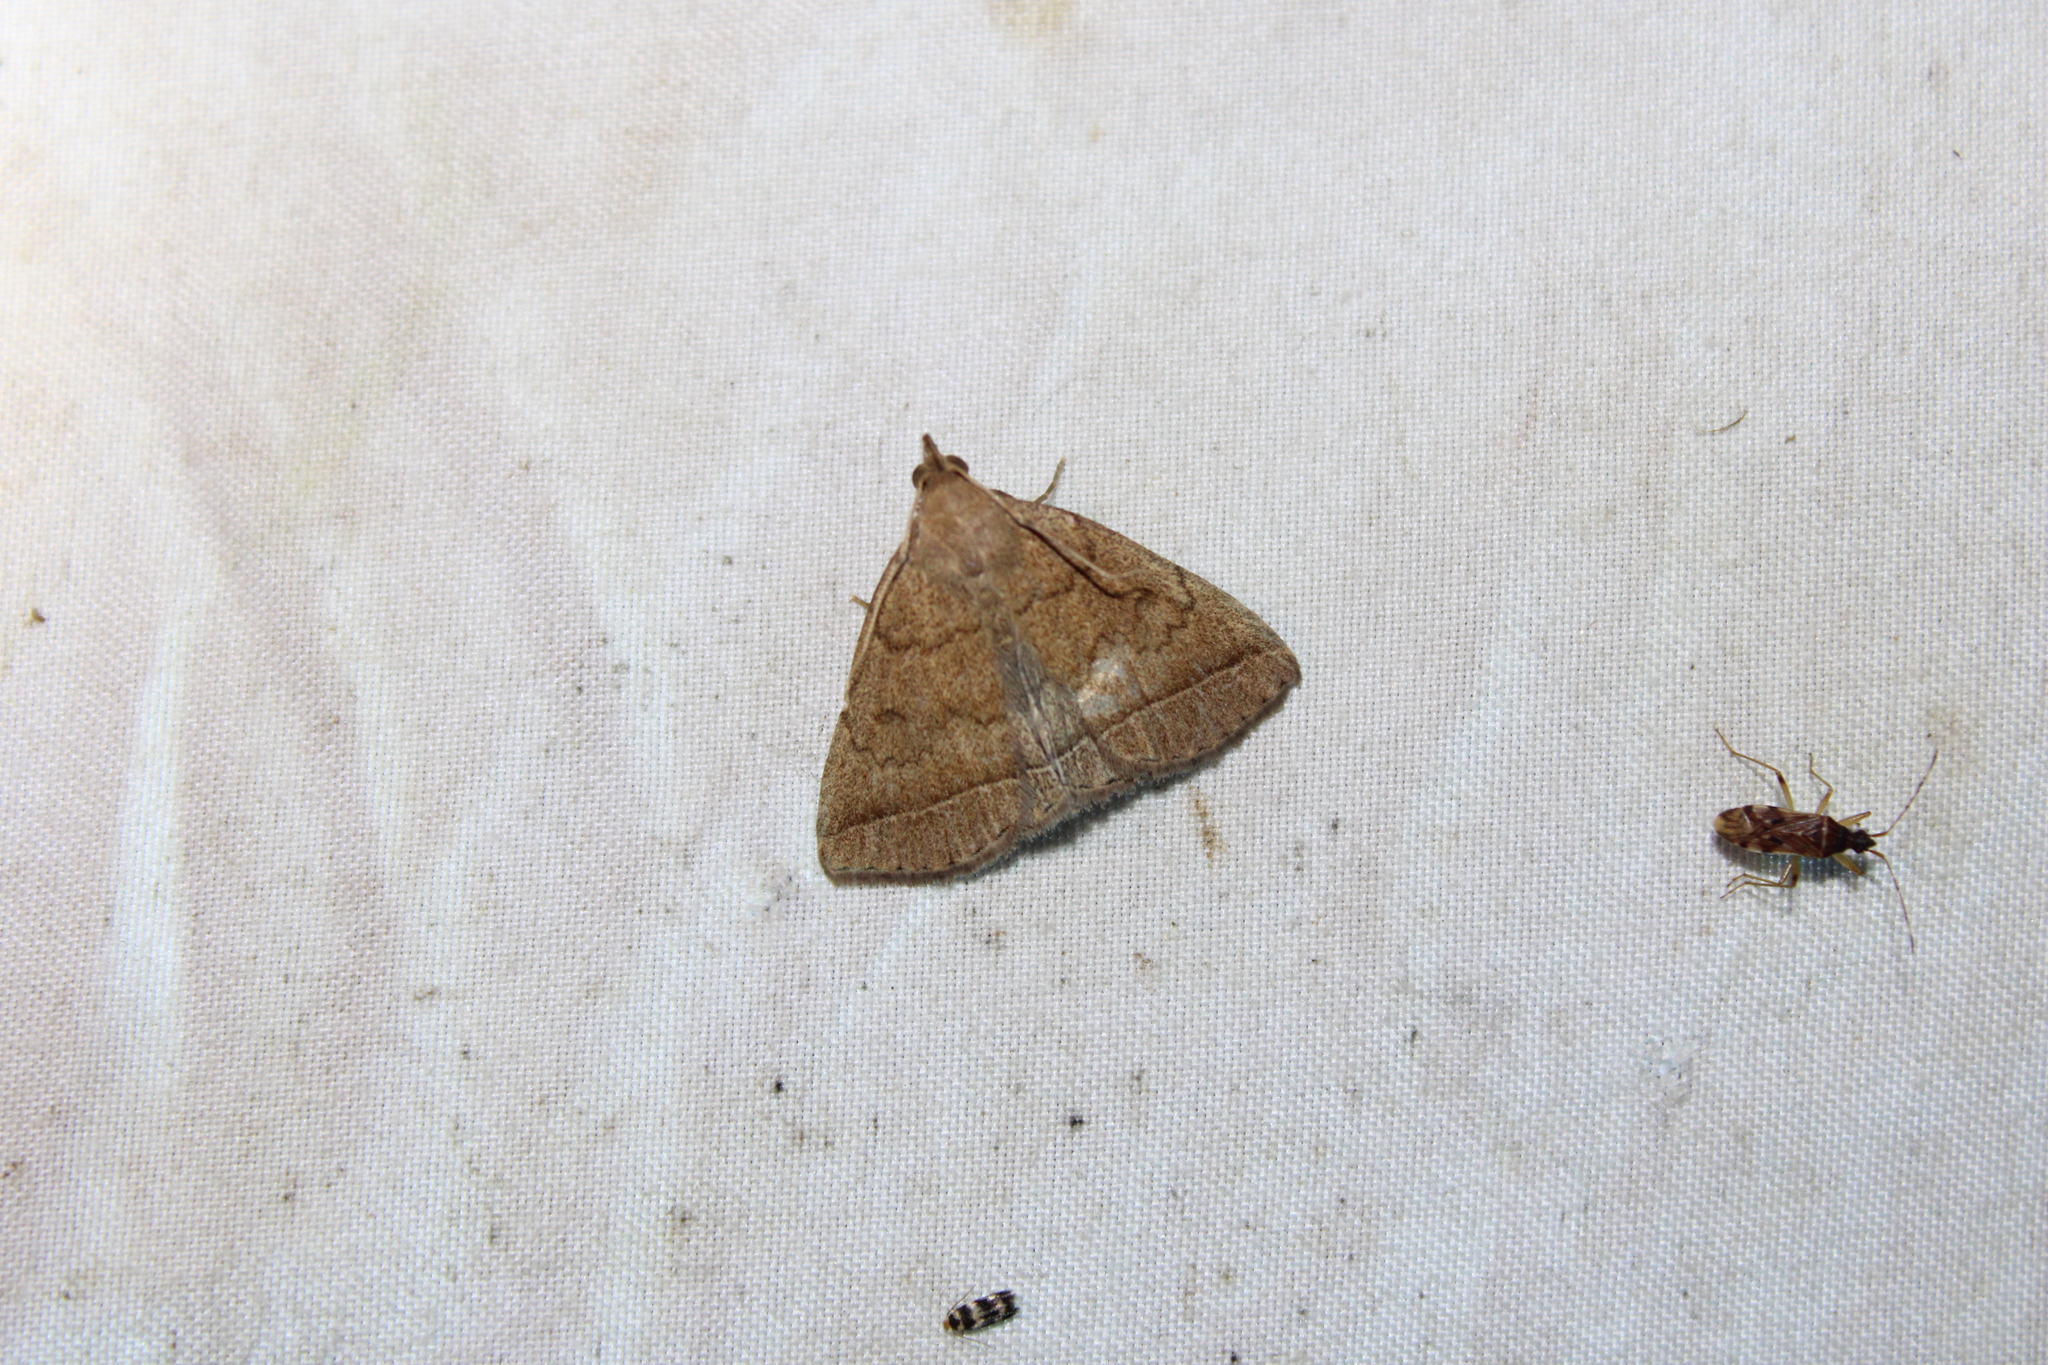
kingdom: Animalia
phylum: Arthropoda
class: Insecta
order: Lepidoptera
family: Erebidae
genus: Zanclognatha
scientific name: Zanclognatha jacchusalis
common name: Yellowish zanclognatha
